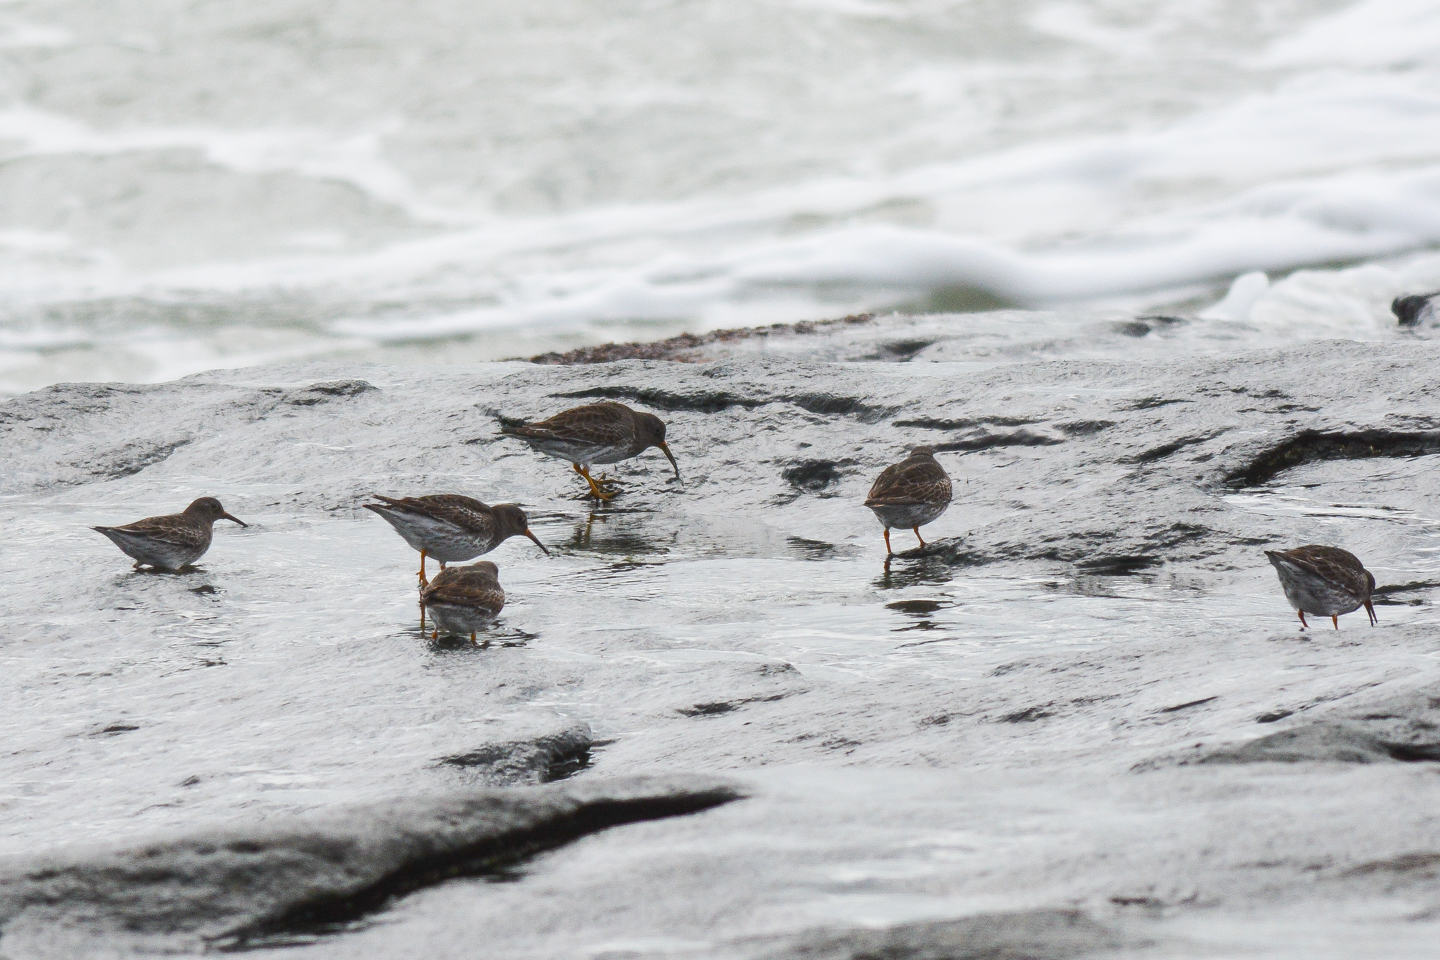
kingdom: Animalia
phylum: Chordata
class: Aves
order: Charadriiformes
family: Scolopacidae
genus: Calidris
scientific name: Calidris maritima
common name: Purple sandpiper
